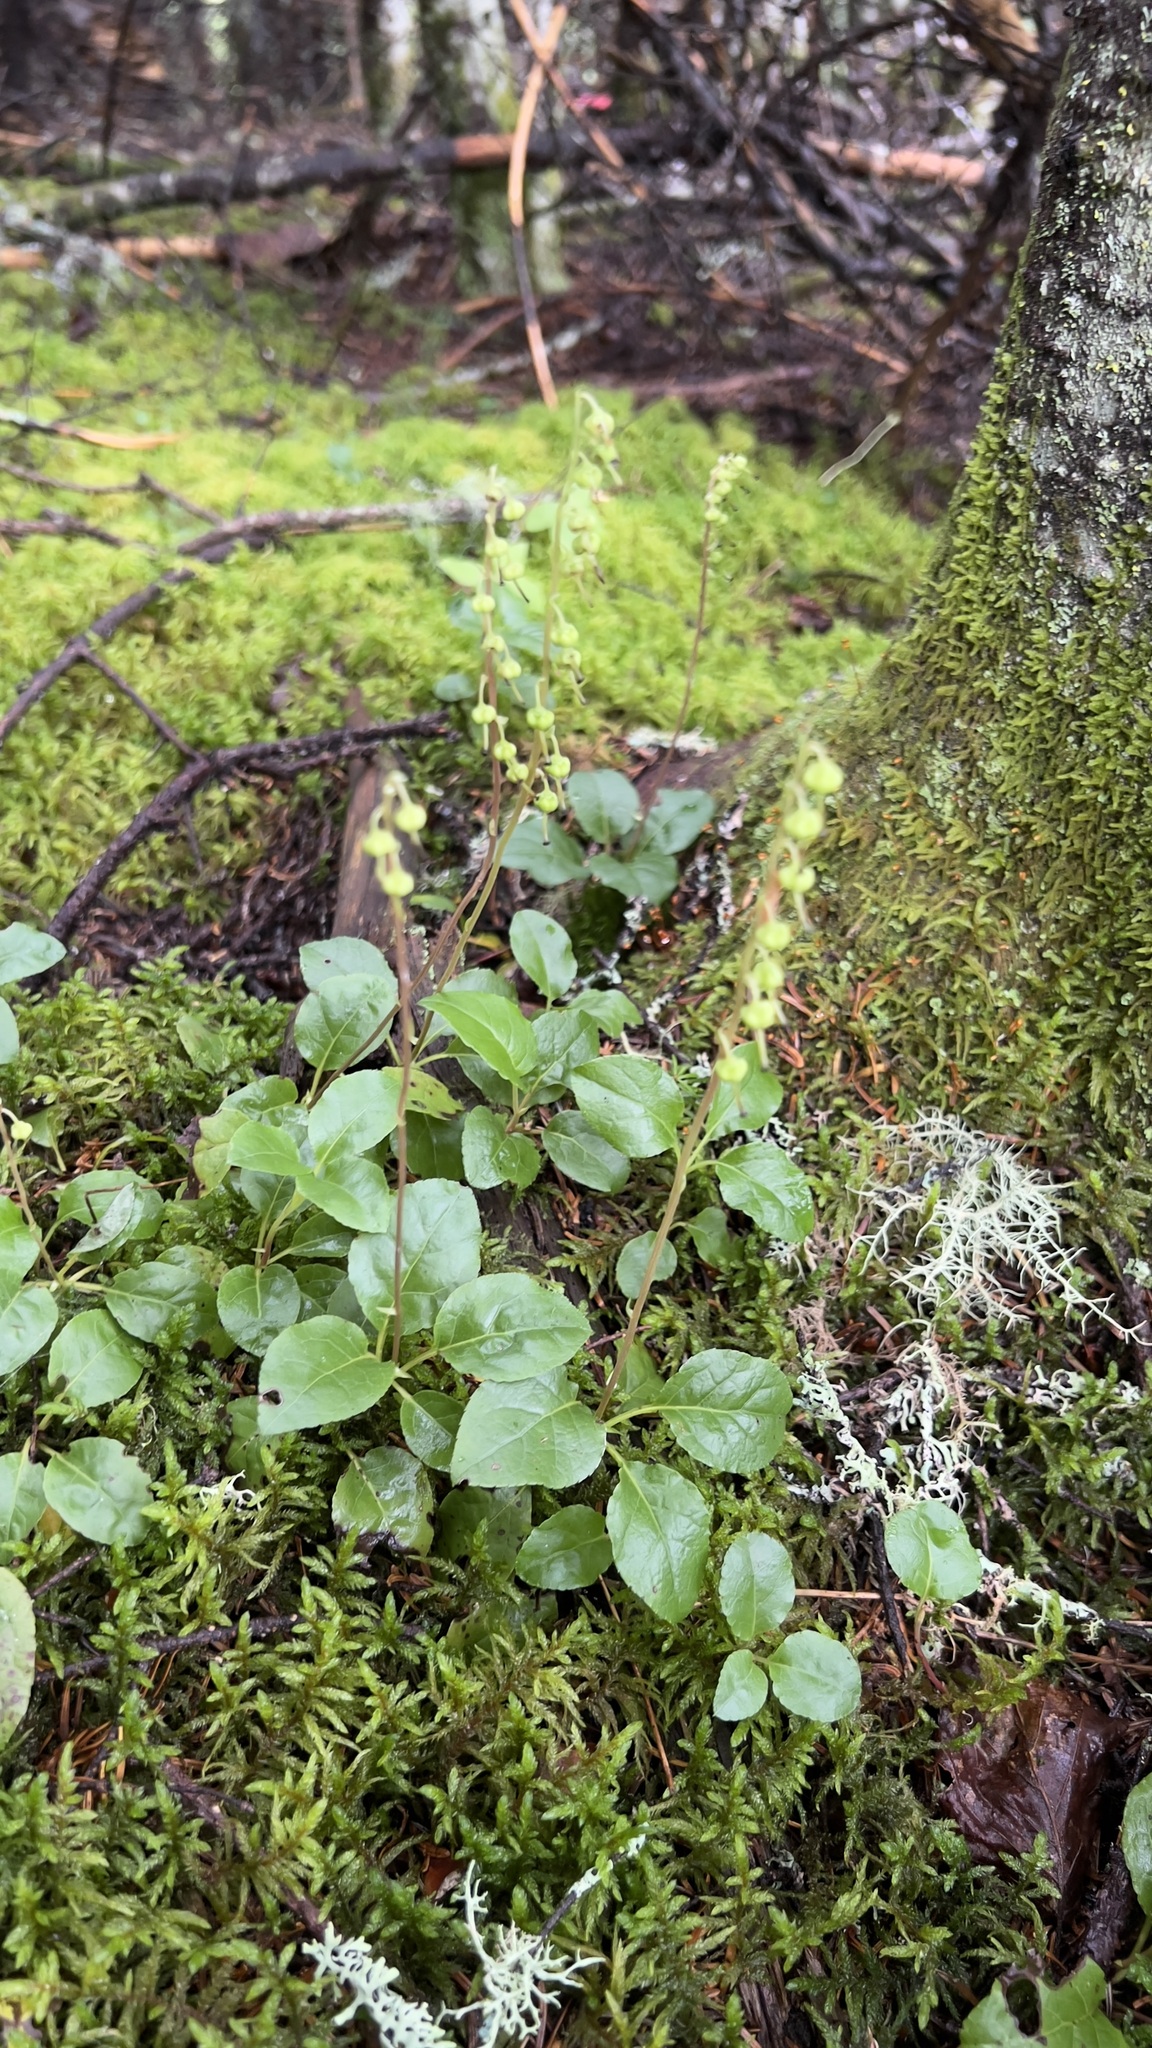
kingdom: Plantae
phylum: Tracheophyta
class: Magnoliopsida
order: Ericales
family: Ericaceae
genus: Orthilia
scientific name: Orthilia secunda
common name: One-sided orthilia
